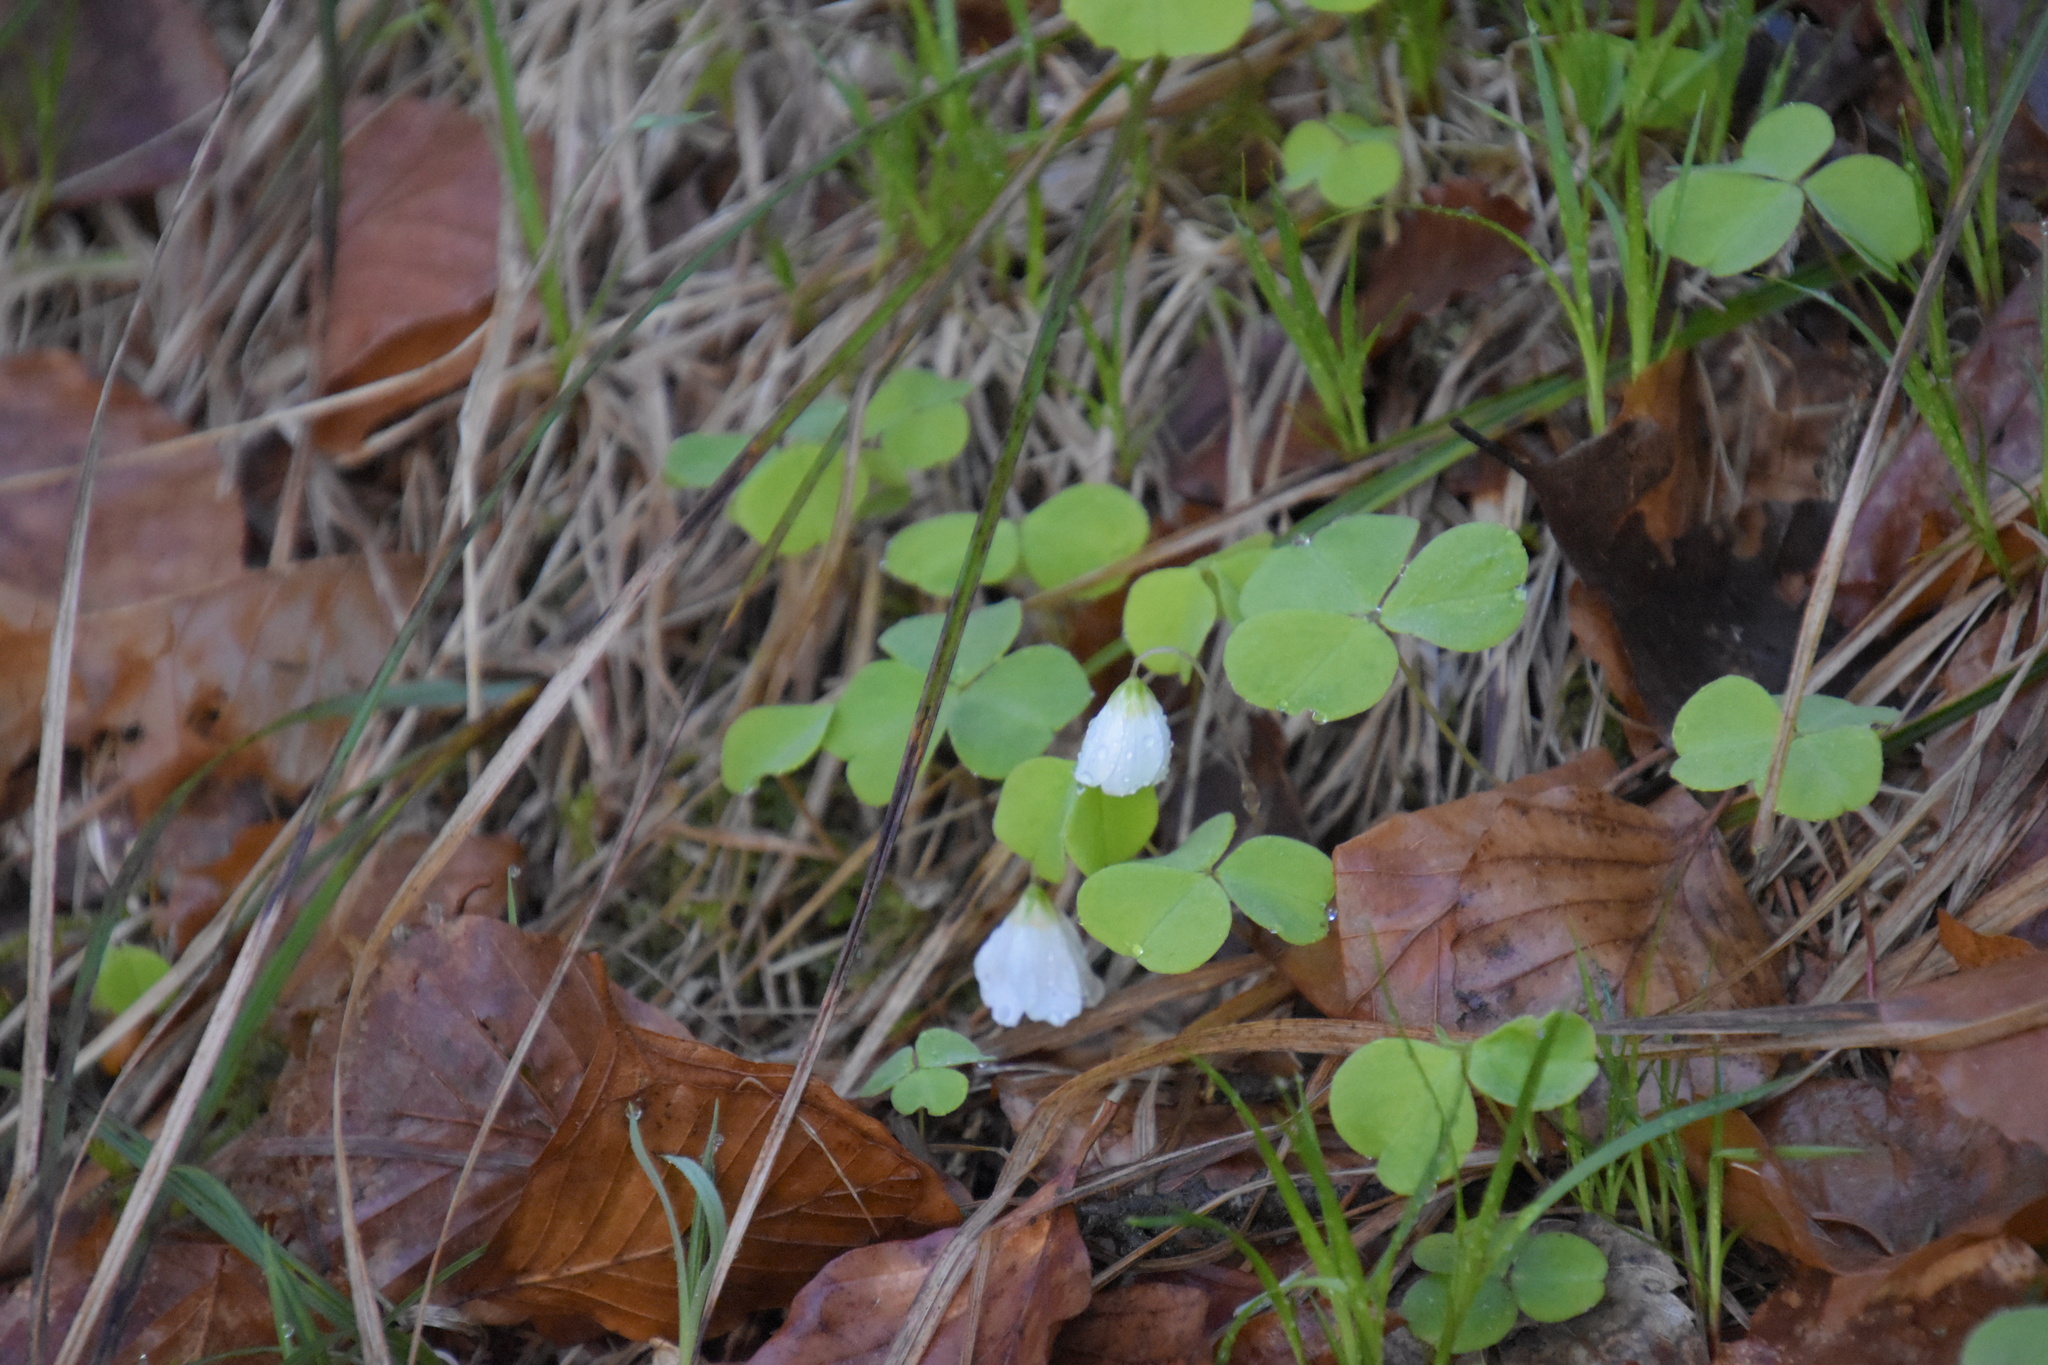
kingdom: Plantae
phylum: Tracheophyta
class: Magnoliopsida
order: Oxalidales
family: Oxalidaceae
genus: Oxalis
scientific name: Oxalis acetosella
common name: Wood-sorrel
